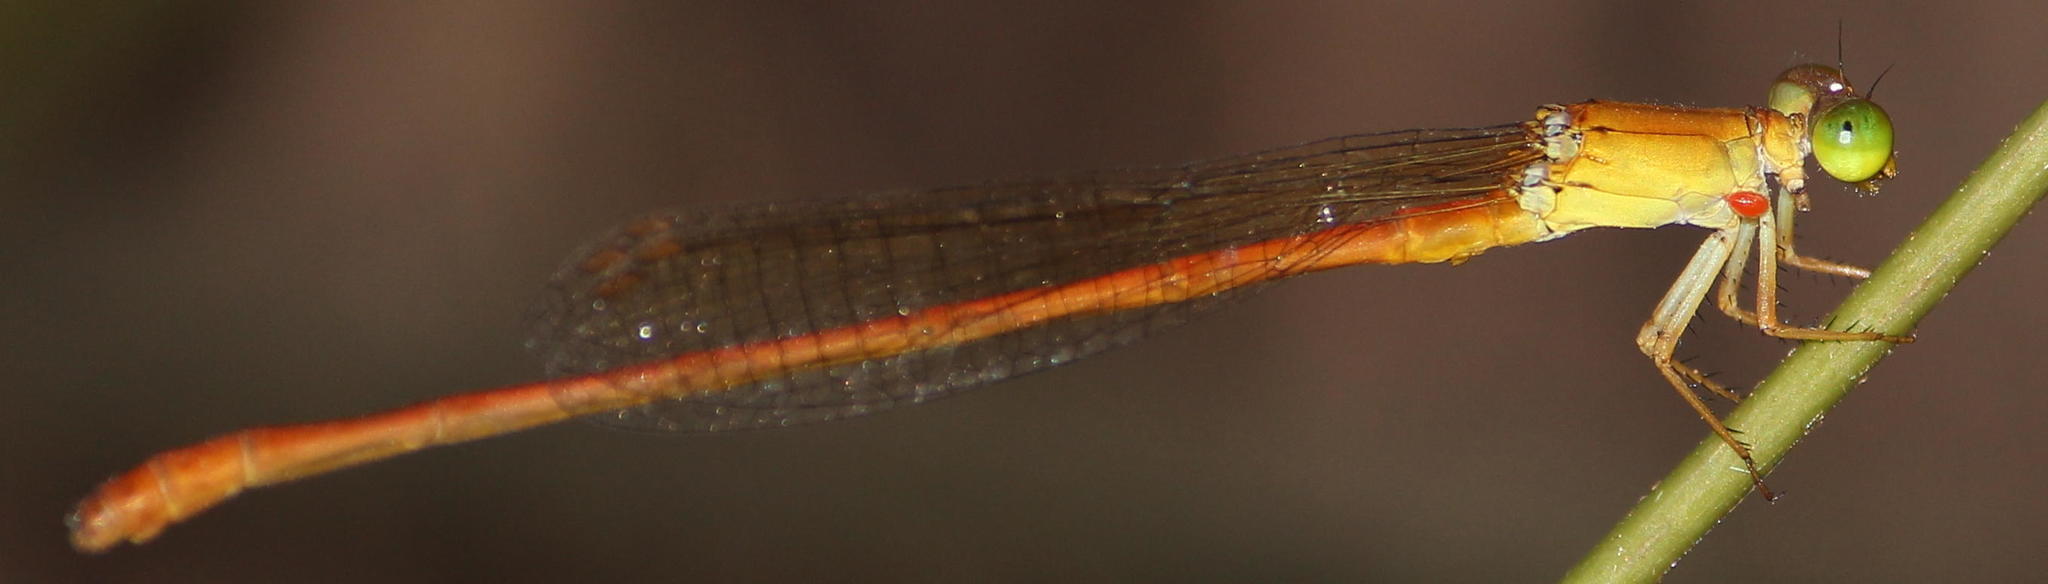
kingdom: Animalia
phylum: Arthropoda
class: Insecta
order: Odonata
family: Coenagrionidae
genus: Ceriagrion
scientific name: Ceriagrion glabrum
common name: Common pond damsel
